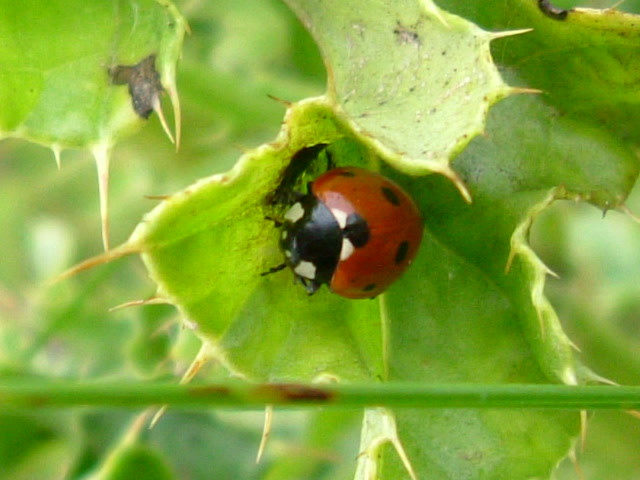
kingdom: Animalia
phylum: Arthropoda
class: Insecta
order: Coleoptera
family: Coccinellidae
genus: Coccinella
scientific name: Coccinella septempunctata
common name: Sevenspotted lady beetle
